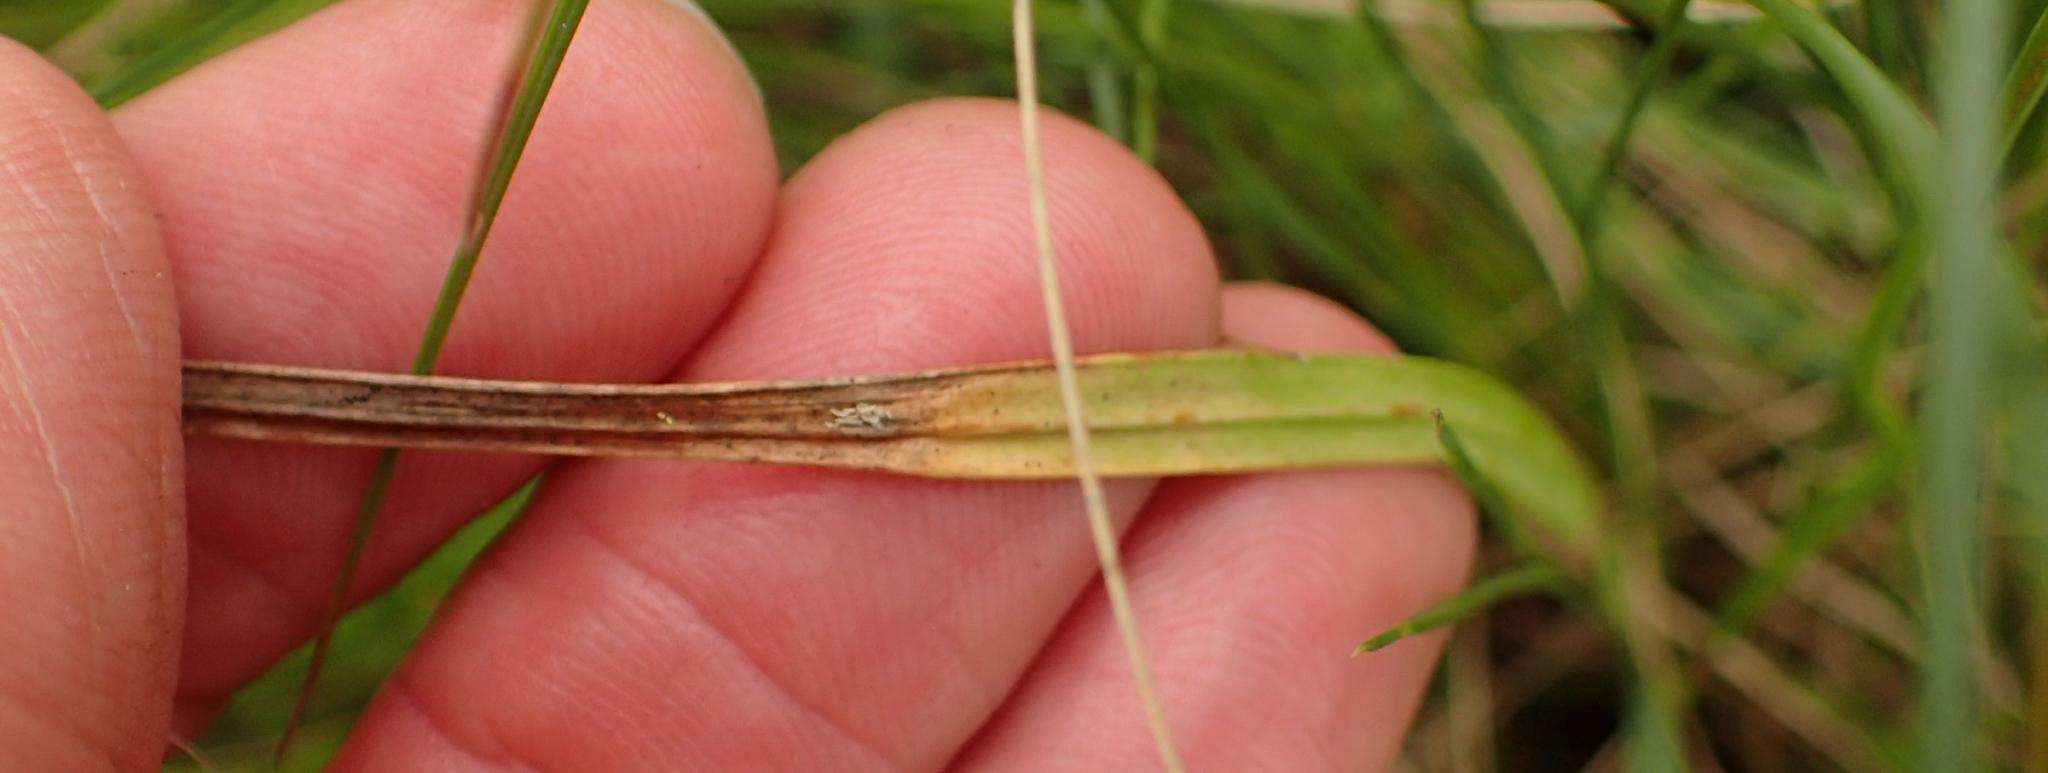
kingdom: Plantae
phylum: Tracheophyta
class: Liliopsida
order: Asparagales
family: Iridaceae
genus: Hesperantha
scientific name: Hesperantha lactea
